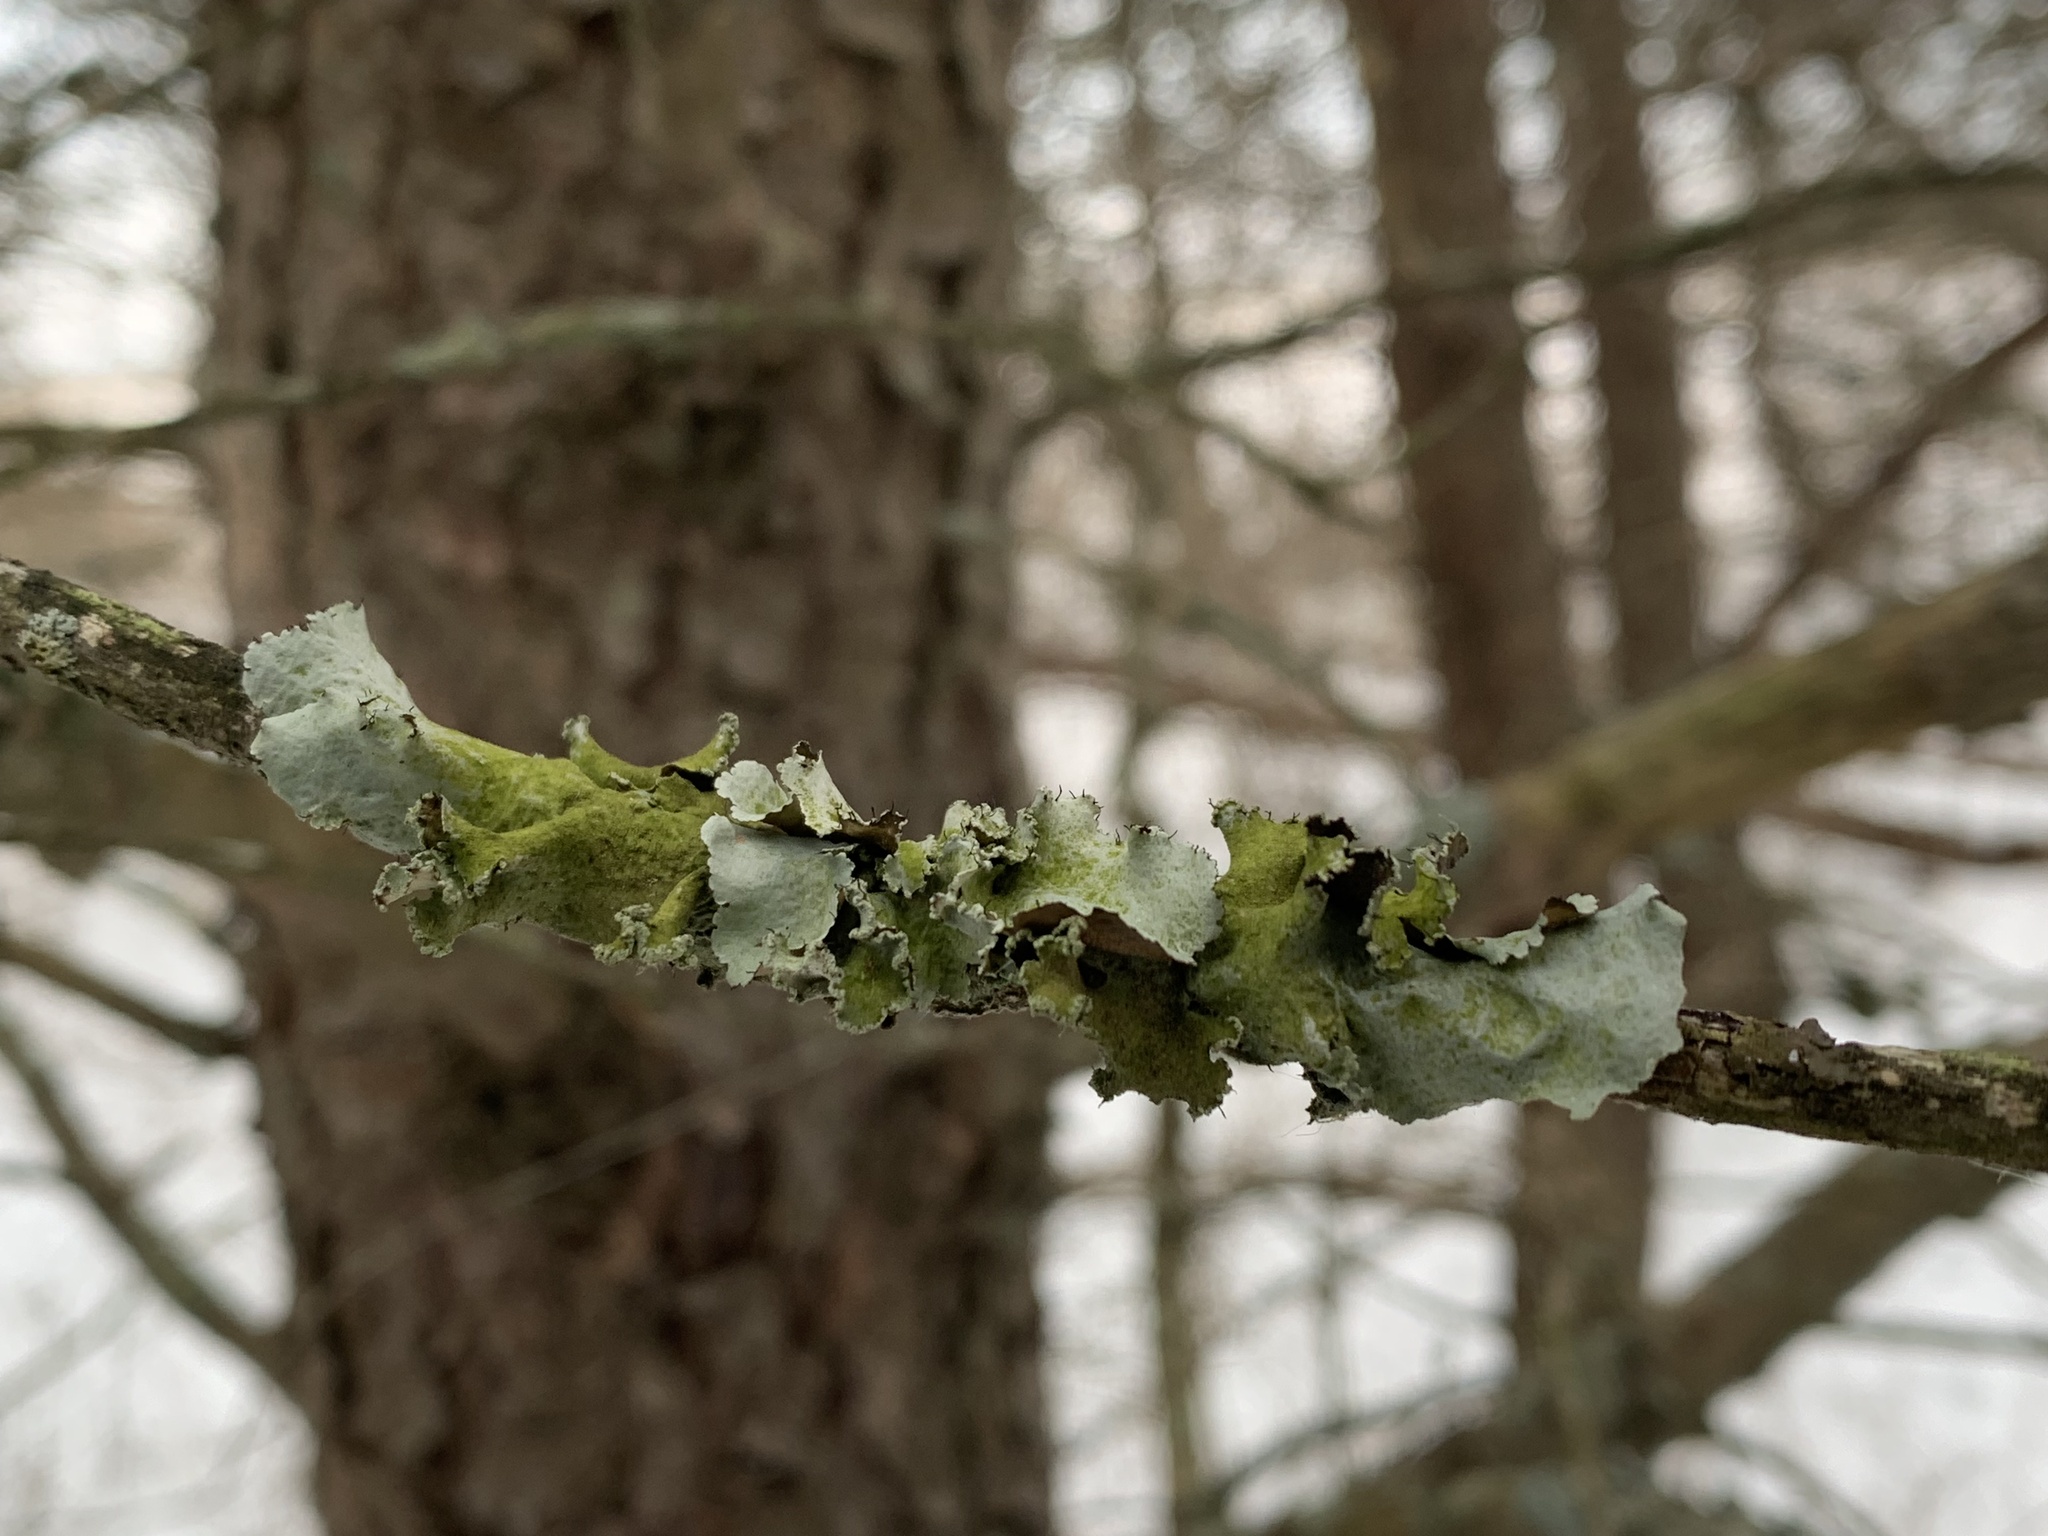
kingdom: Fungi
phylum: Ascomycota
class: Lecanoromycetes
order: Lecanorales
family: Parmeliaceae
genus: Parmotrema
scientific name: Parmotrema hypotropum
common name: Powdered ruffle lichen
